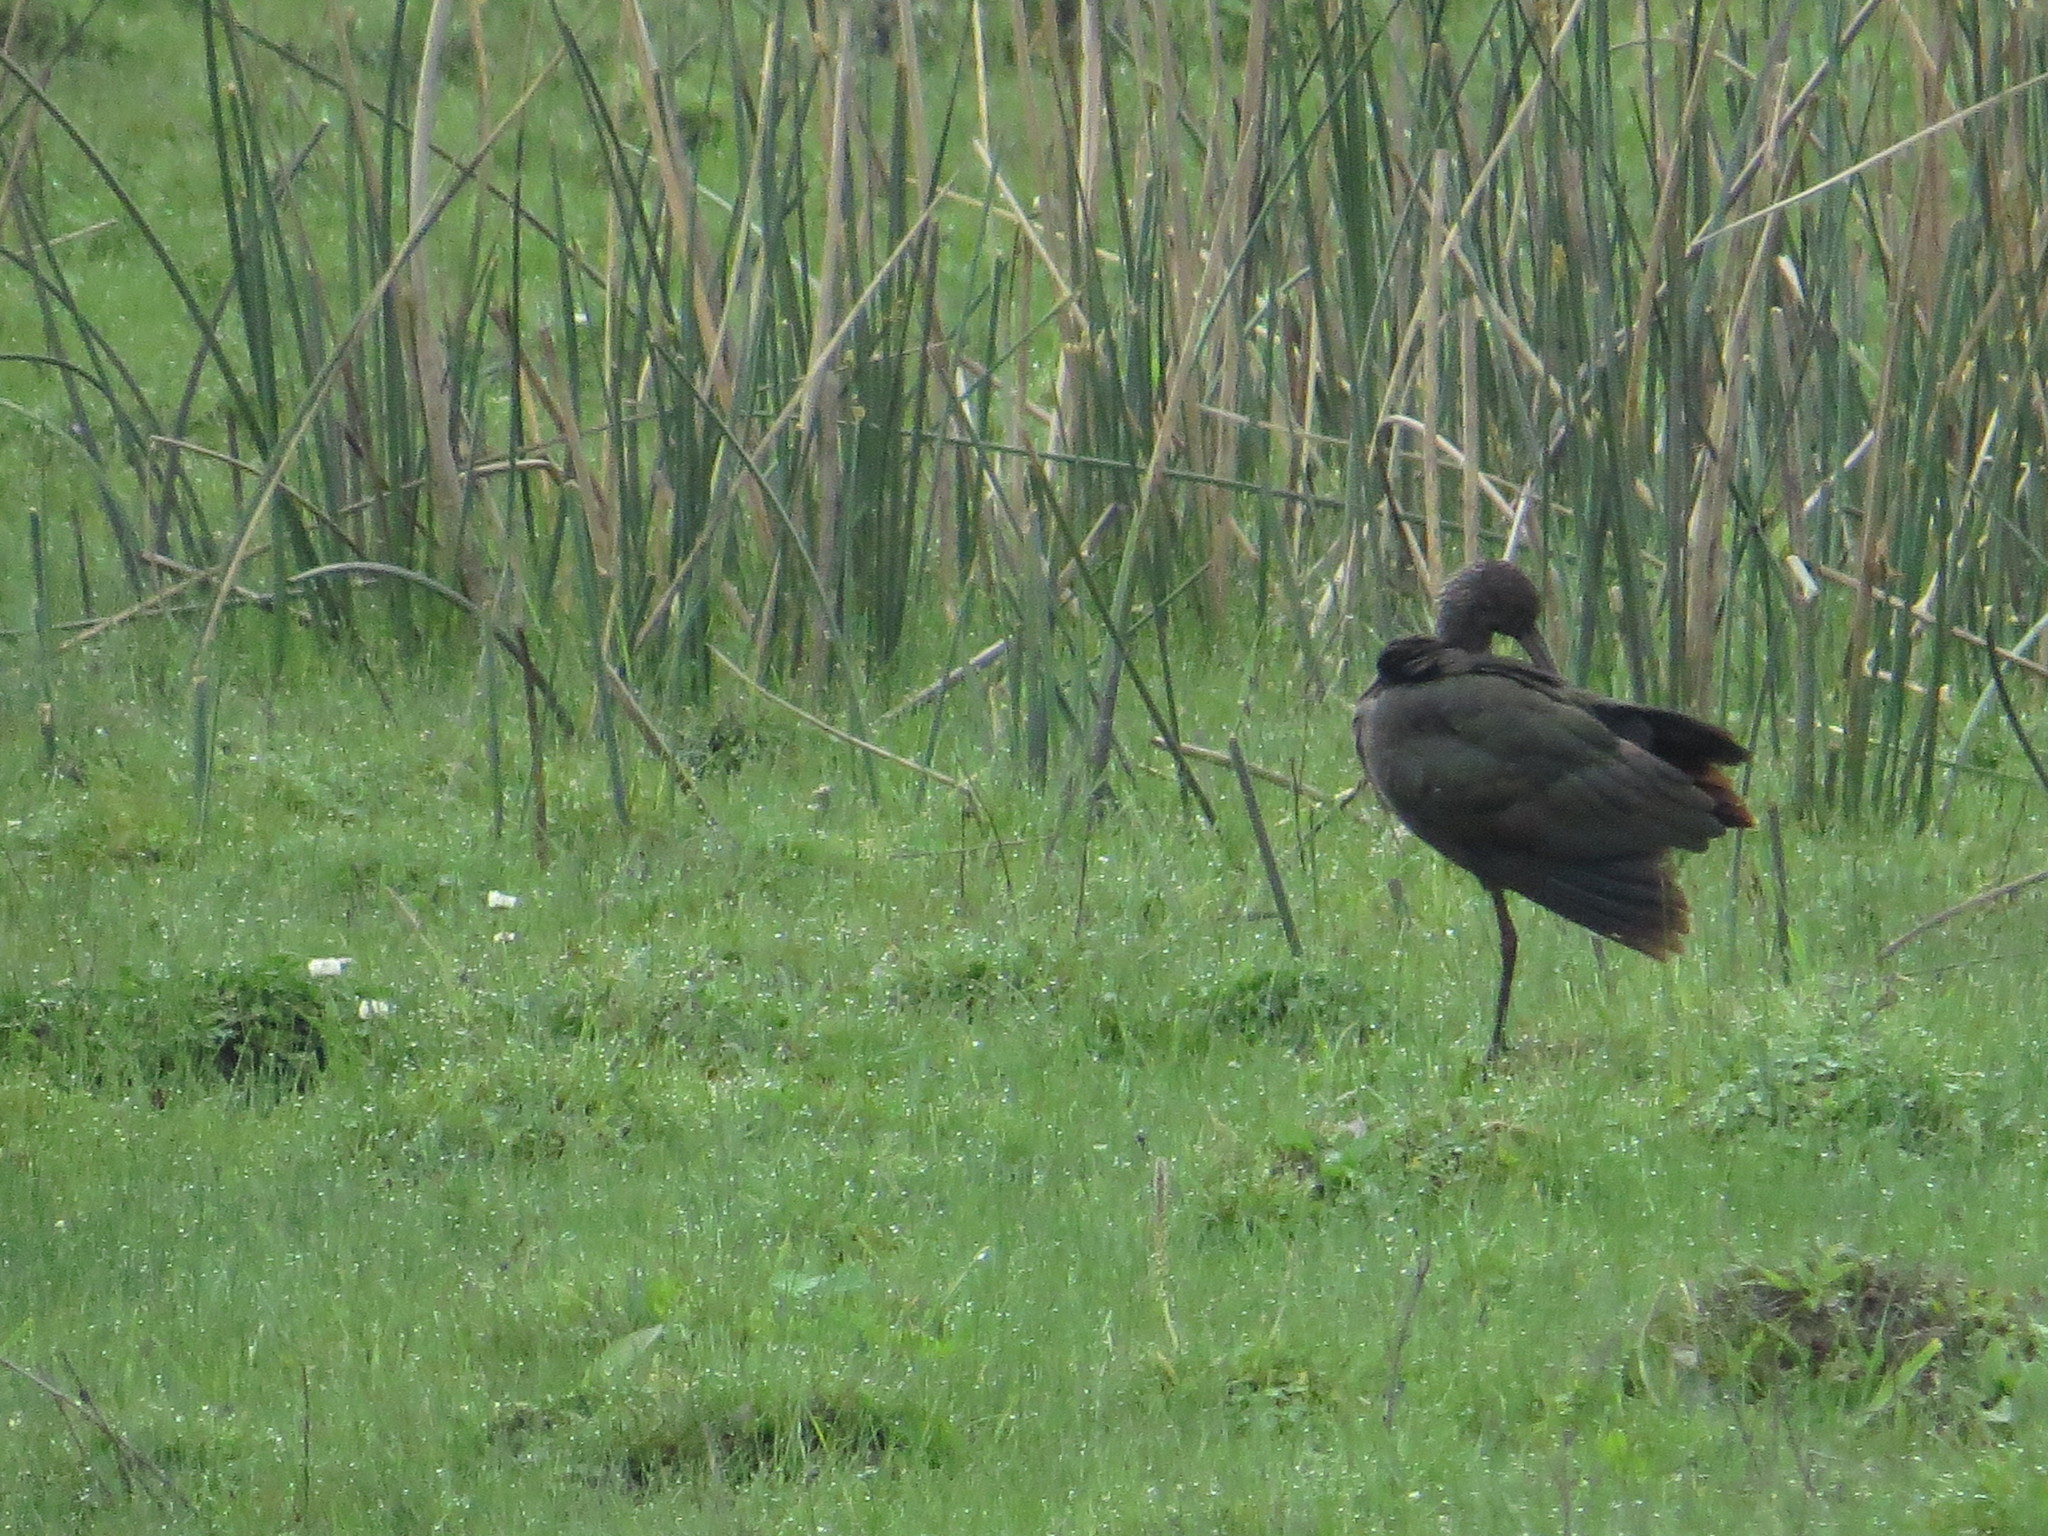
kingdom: Animalia
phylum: Chordata
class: Aves
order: Pelecaniformes
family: Threskiornithidae
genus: Plegadis
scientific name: Plegadis chihi
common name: White-faced ibis
